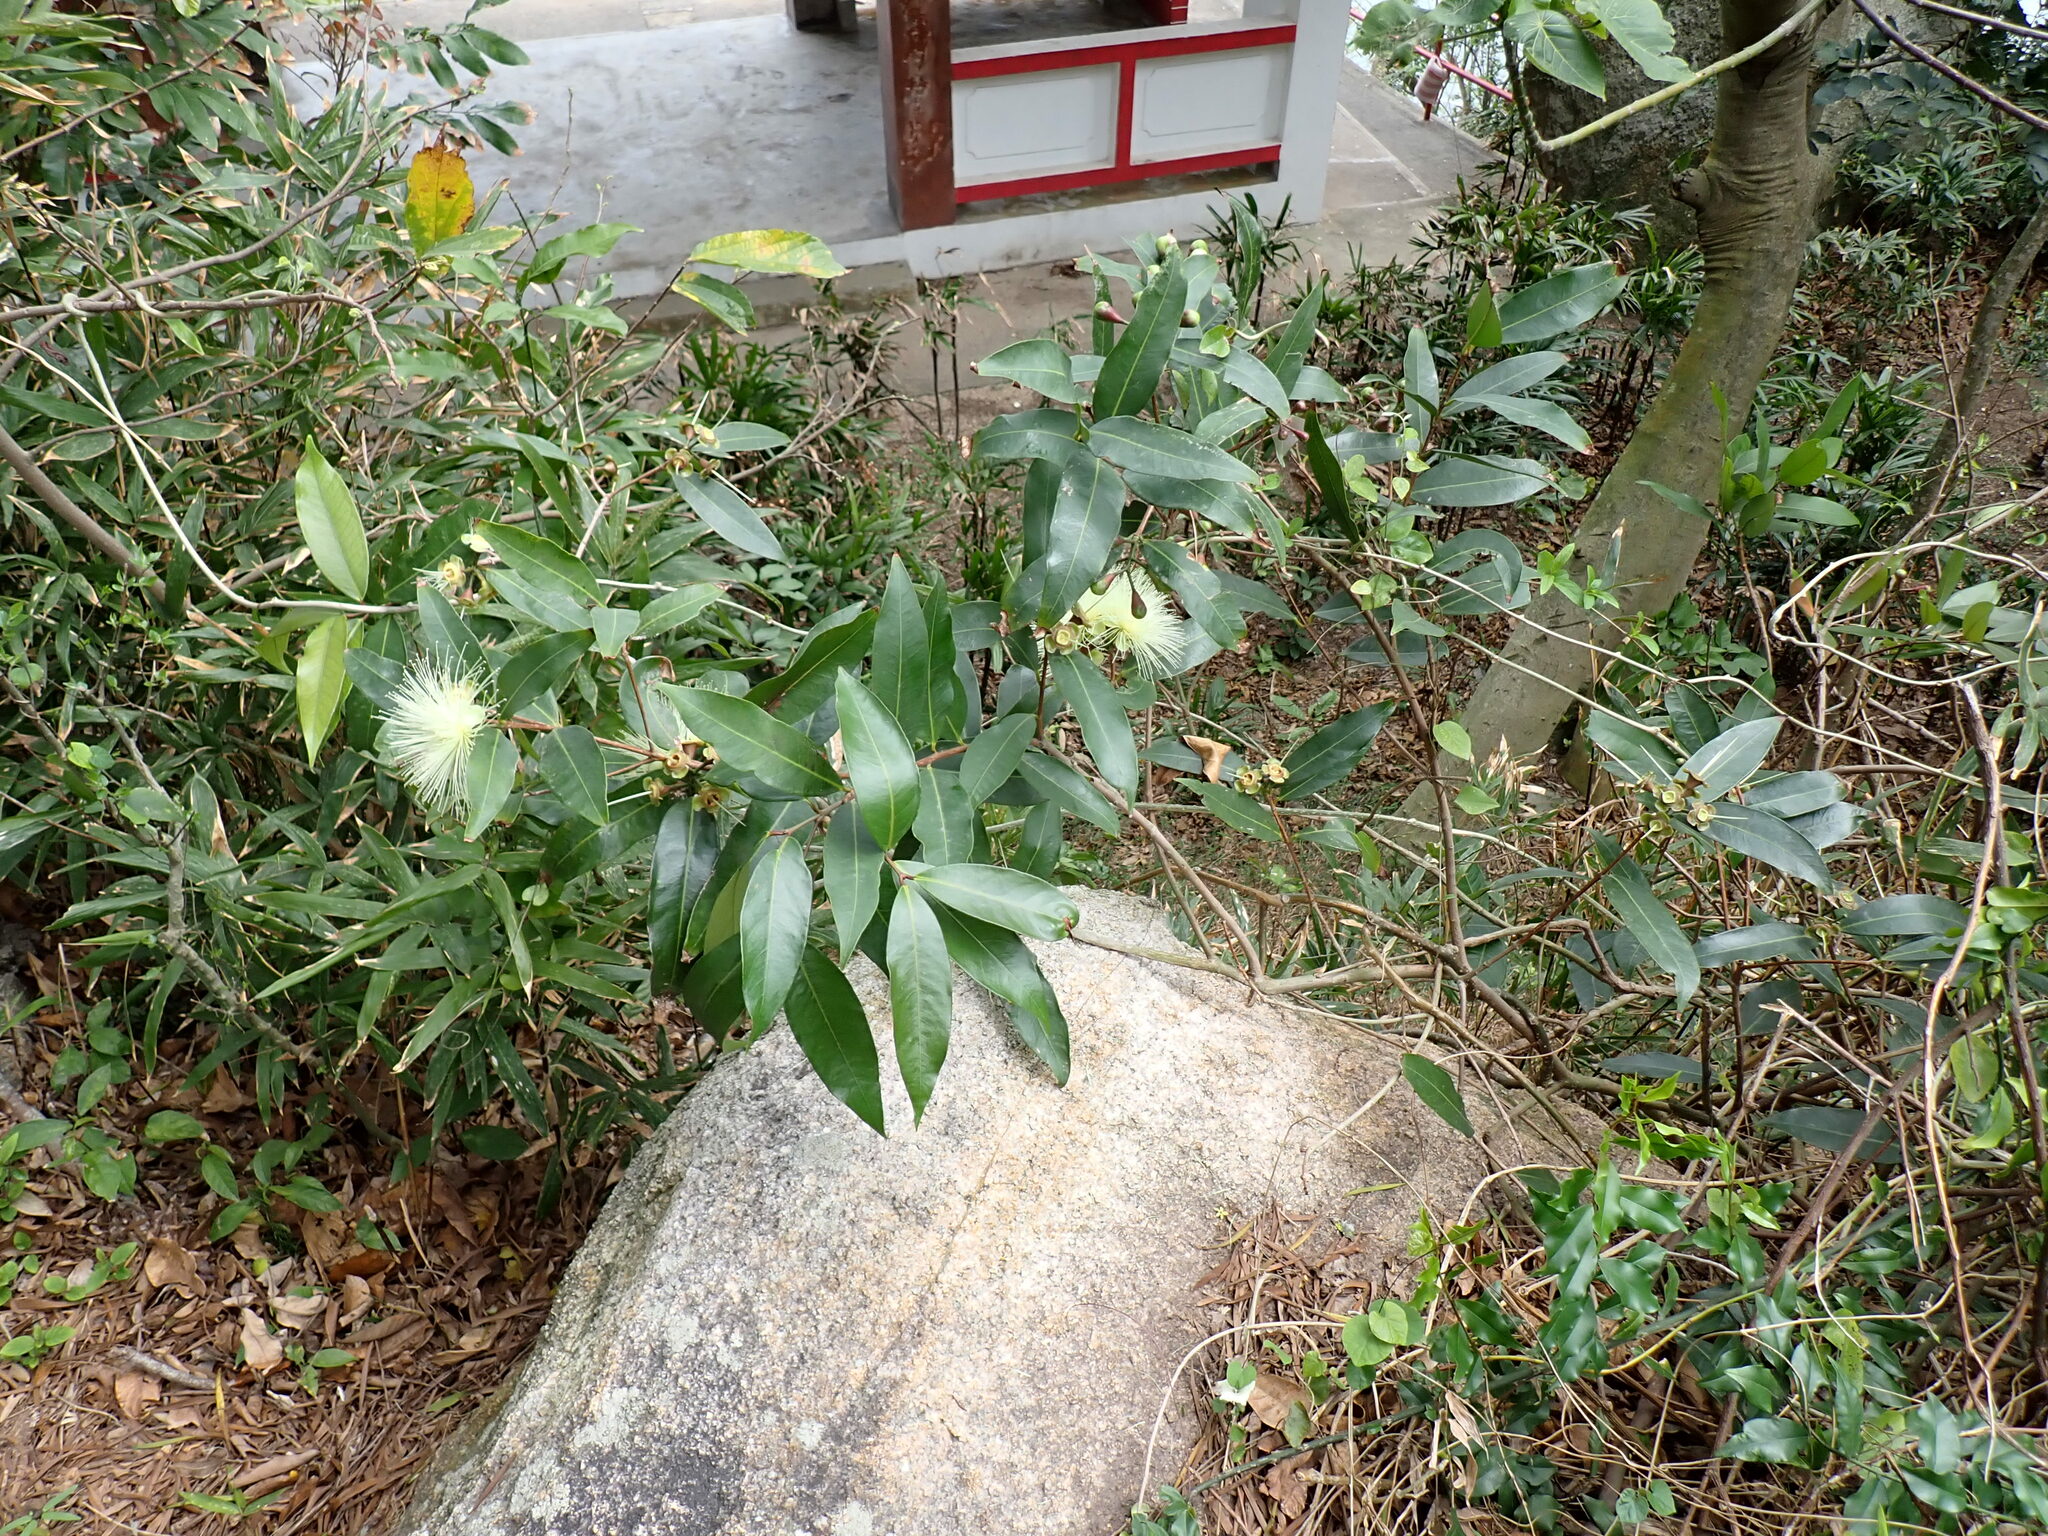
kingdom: Plantae
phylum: Tracheophyta
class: Magnoliopsida
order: Myrtales
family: Myrtaceae
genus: Syzygium
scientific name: Syzygium jambos
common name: Malabar plum
